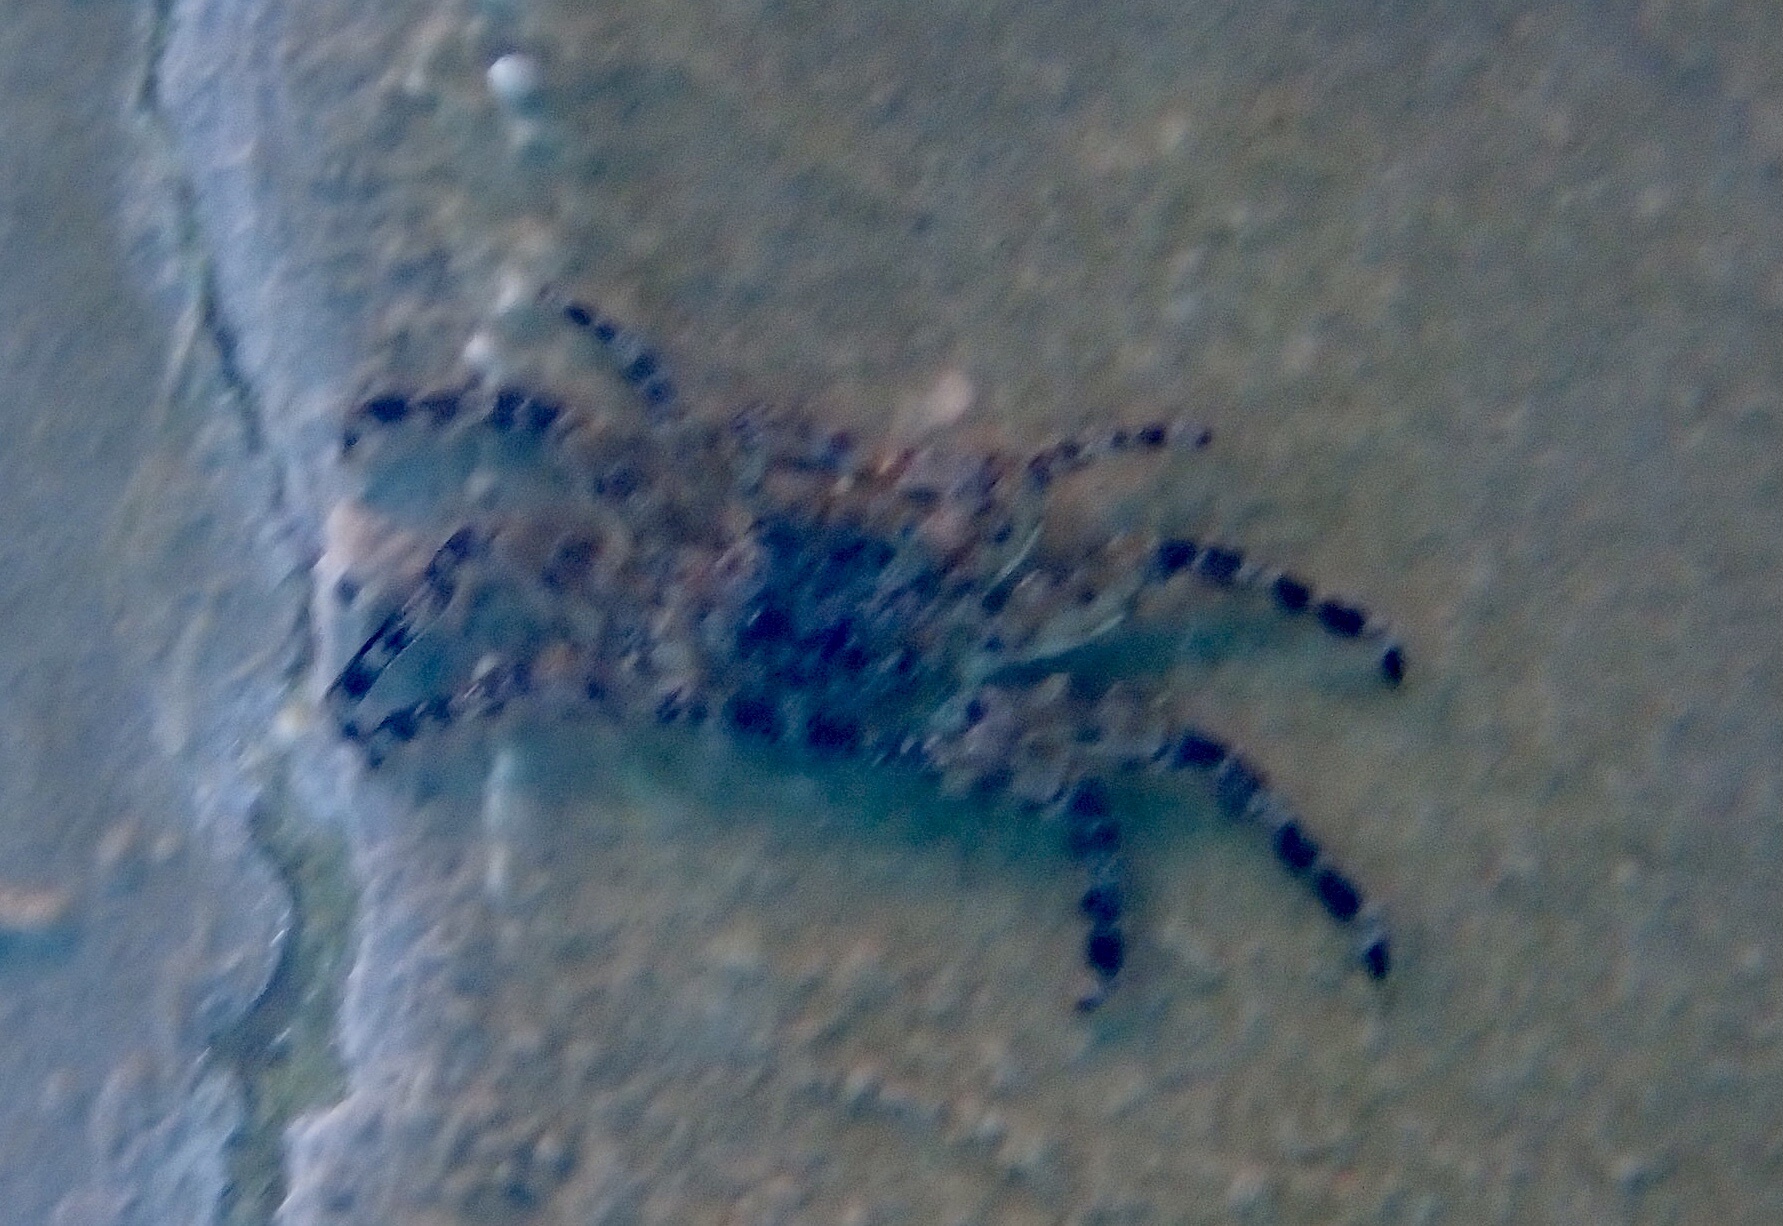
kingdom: Animalia
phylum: Arthropoda
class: Malacostraca
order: Decapoda
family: Plagusiidae
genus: Plagusia
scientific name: Plagusia depressa
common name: Flattened crab
